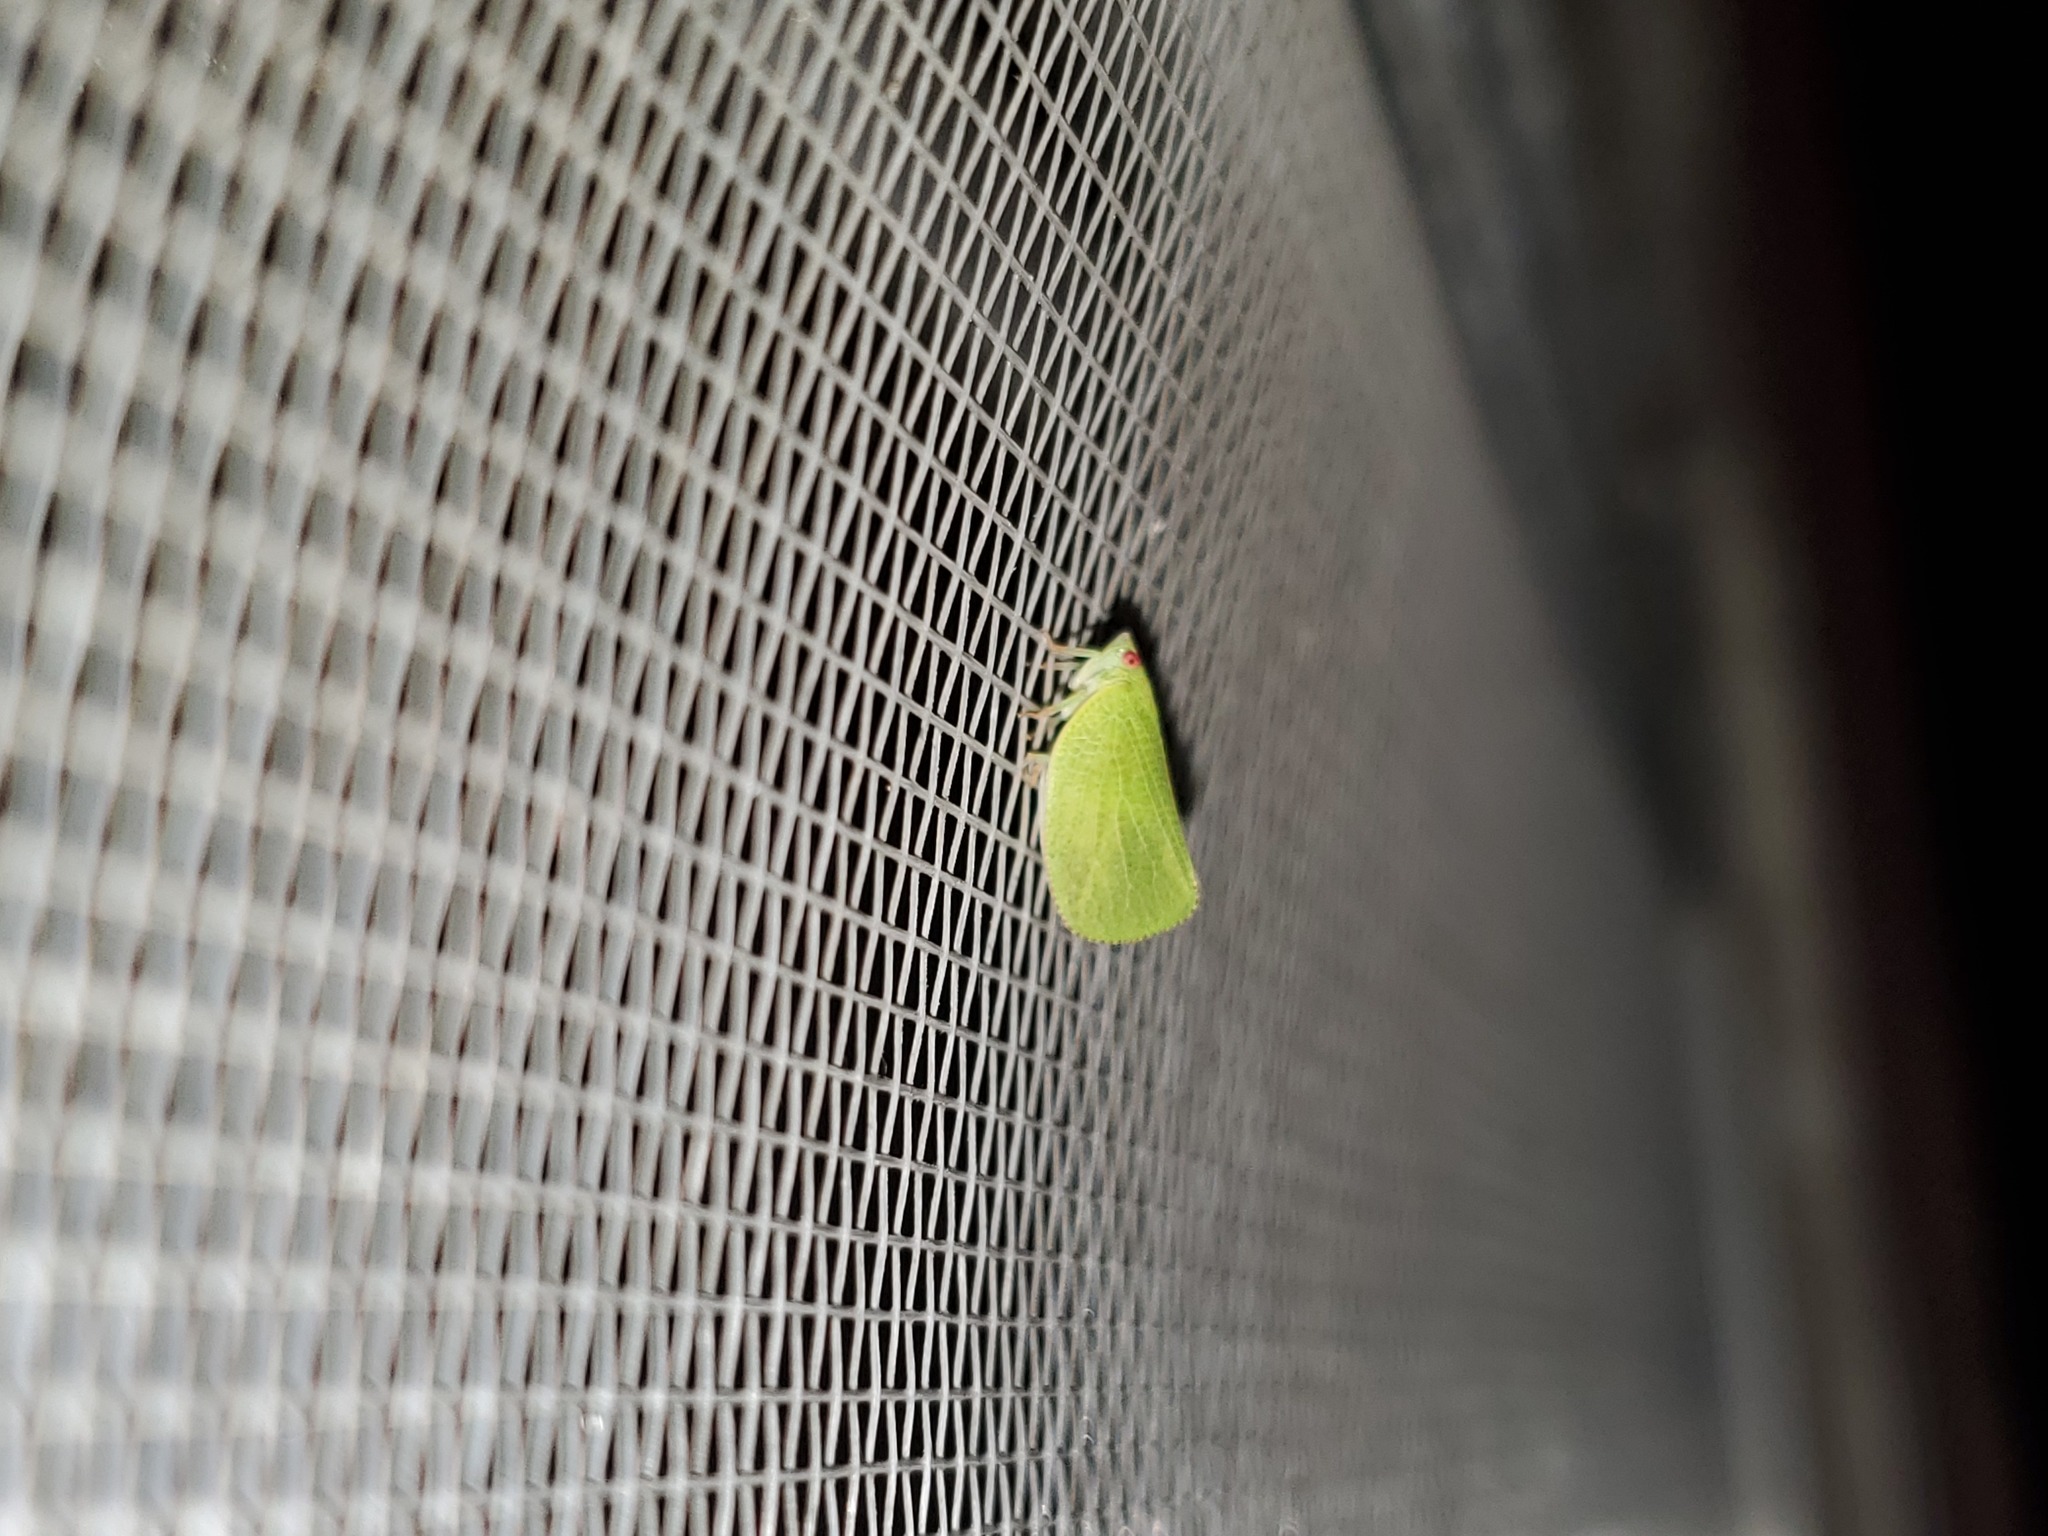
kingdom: Animalia
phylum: Arthropoda
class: Insecta
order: Hemiptera
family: Acanaloniidae
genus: Acanalonia
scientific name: Acanalonia conica
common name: Green cone-headed planthopper
